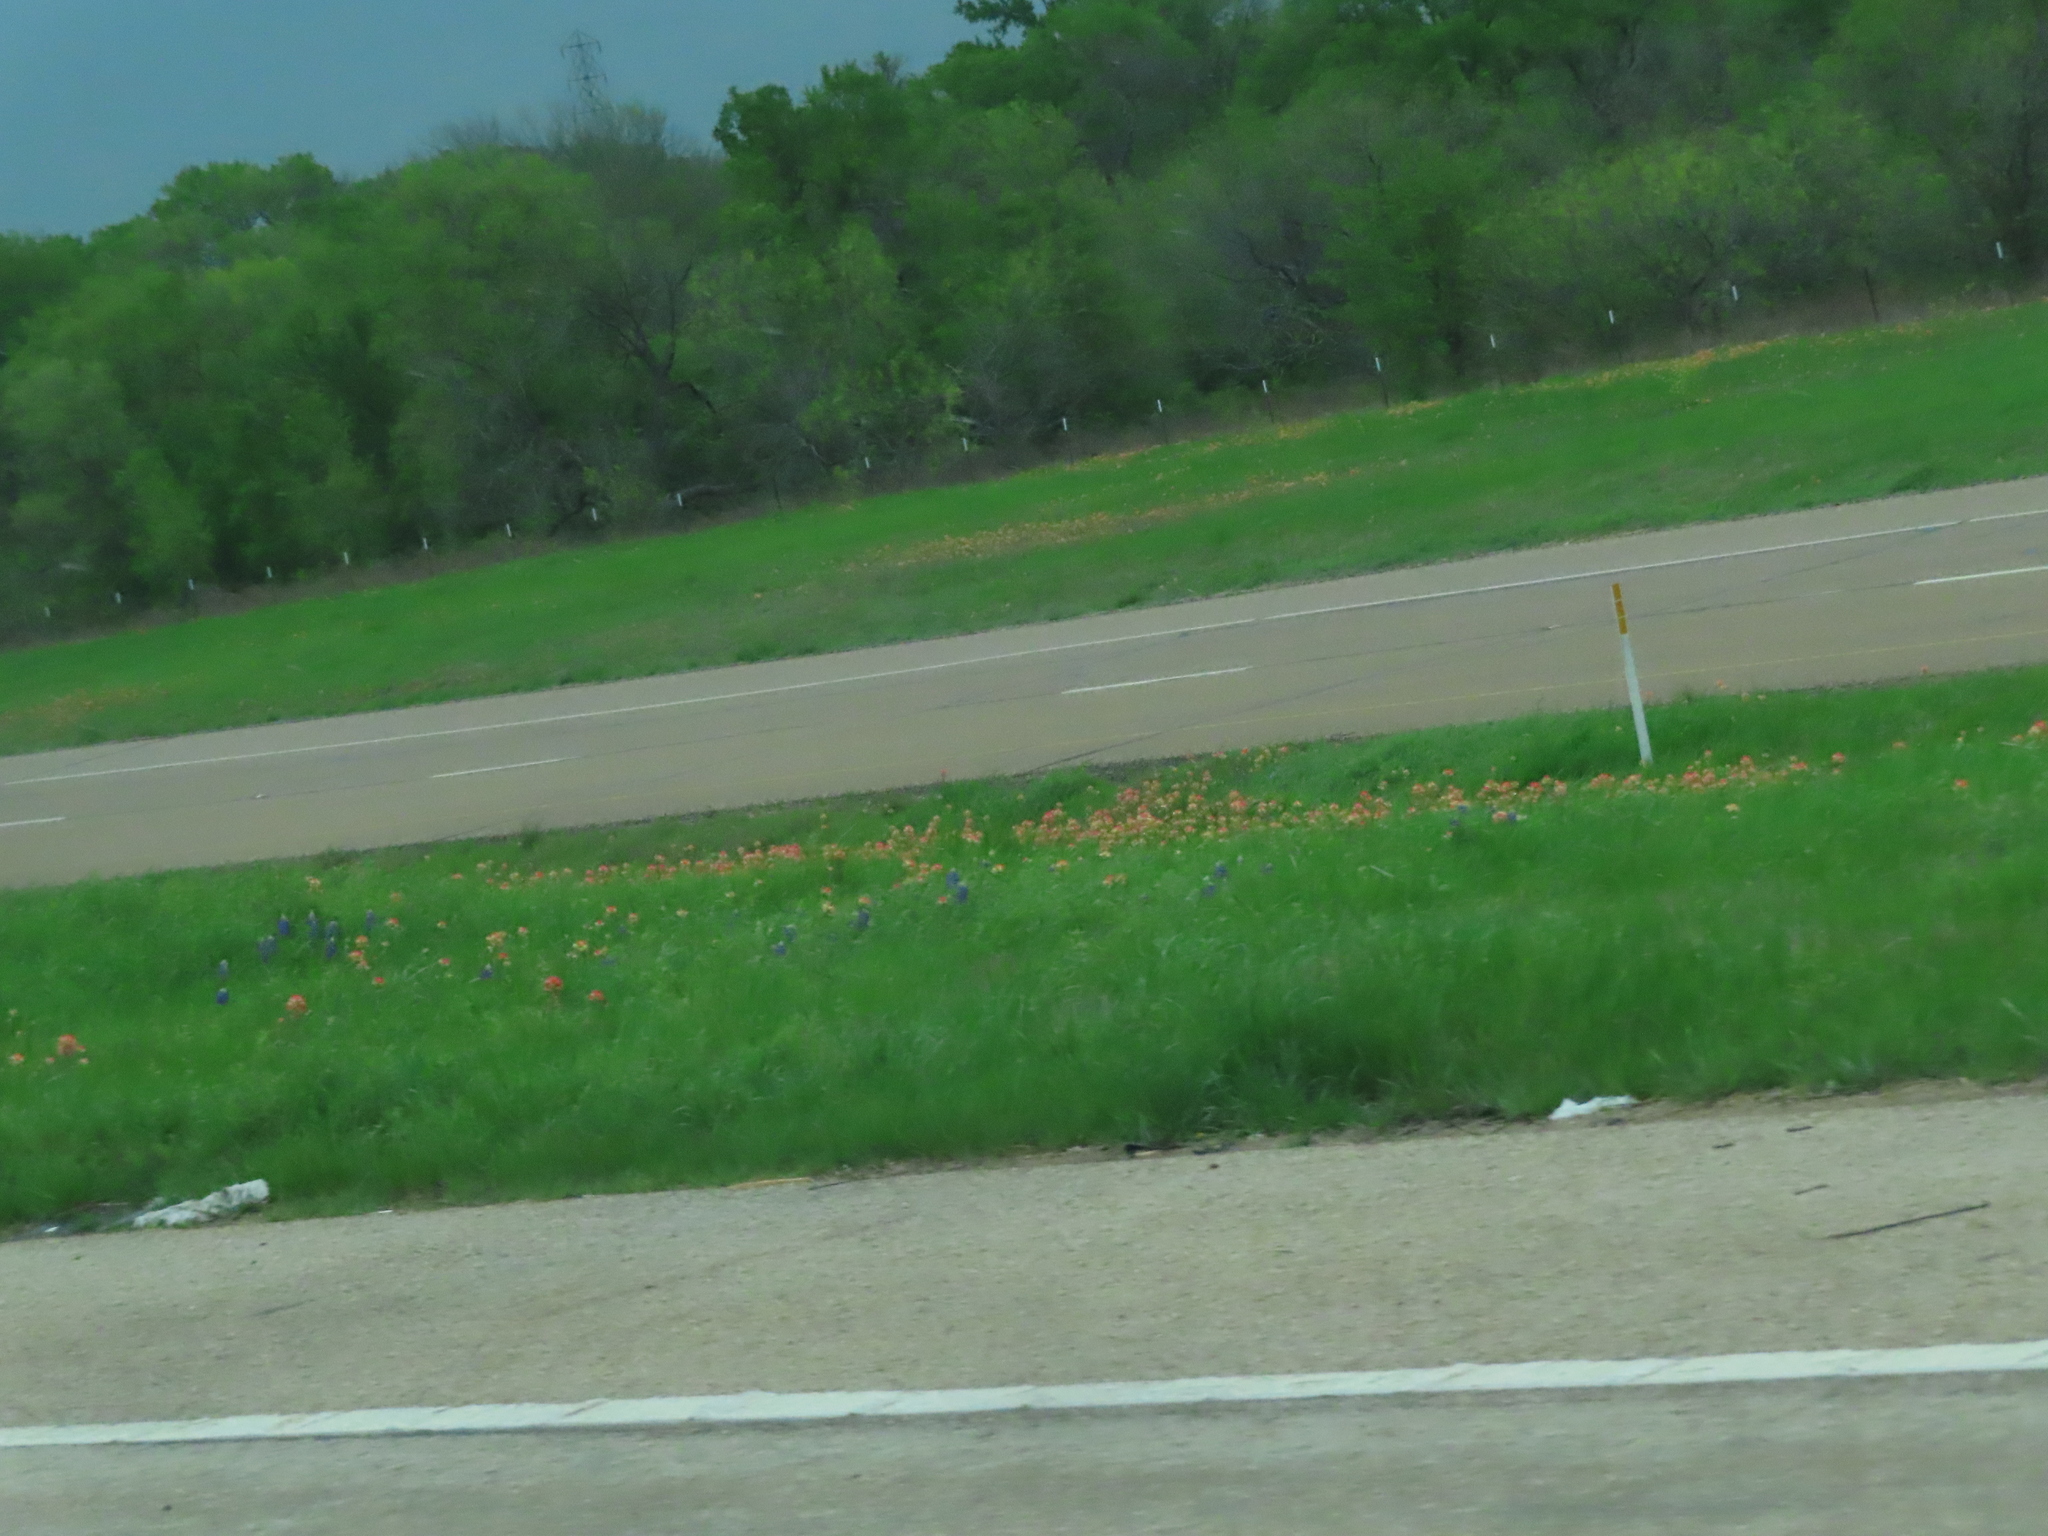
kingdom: Plantae
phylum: Tracheophyta
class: Magnoliopsida
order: Lamiales
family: Orobanchaceae
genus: Castilleja
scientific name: Castilleja indivisa
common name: Texas paintbrush
